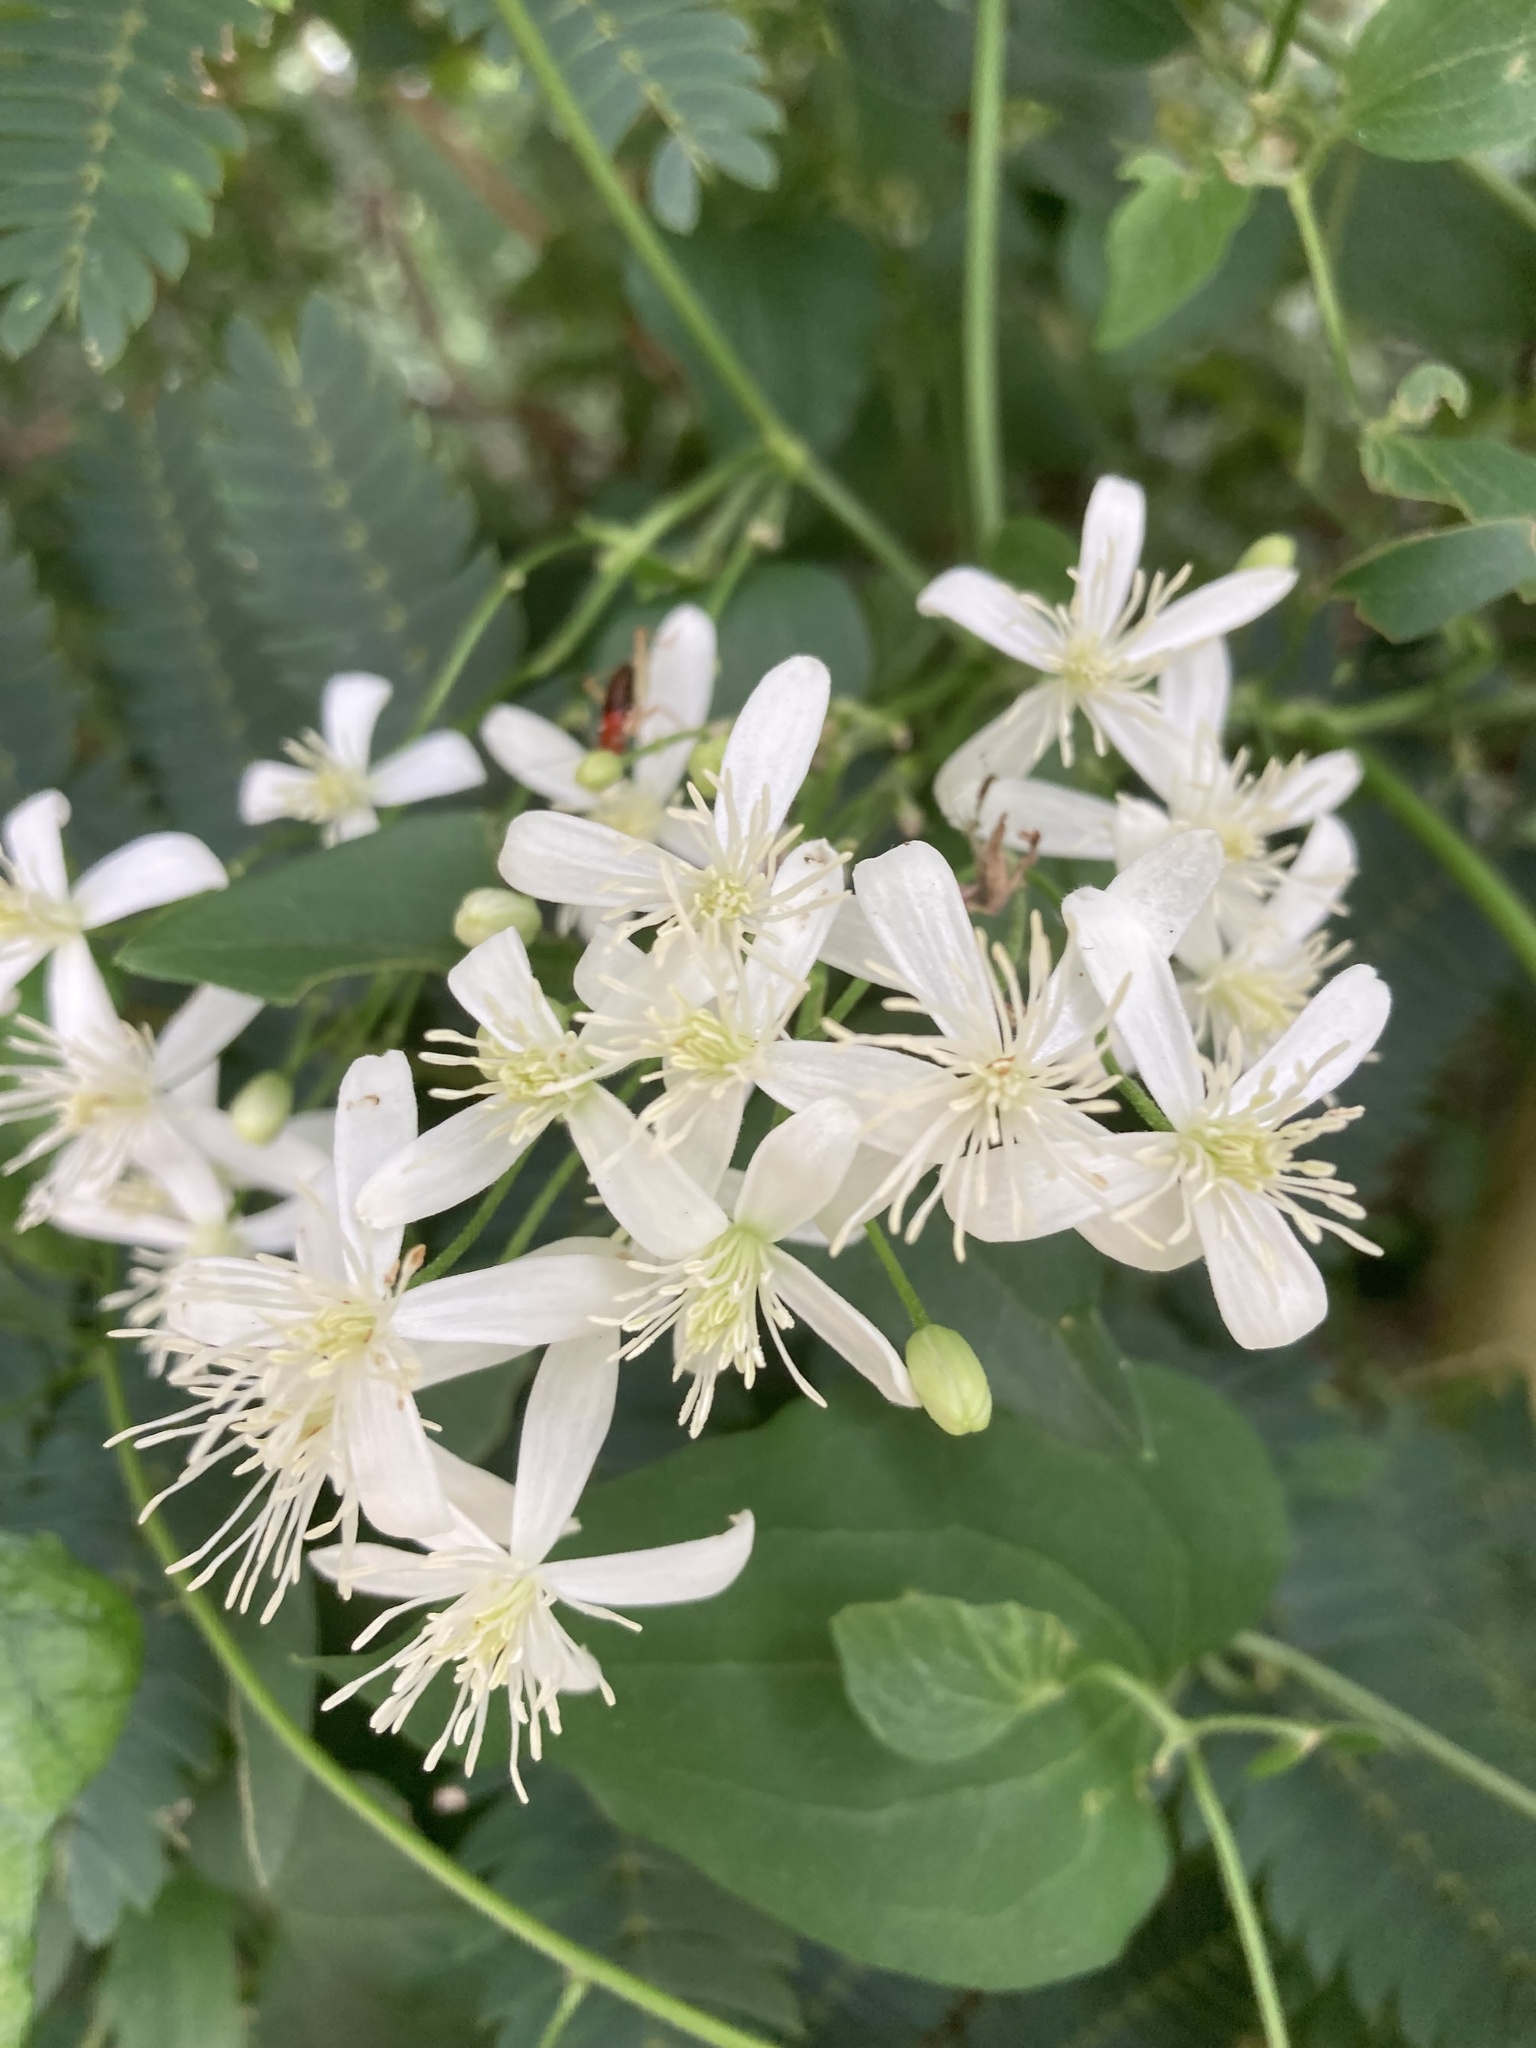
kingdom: Plantae
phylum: Tracheophyta
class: Magnoliopsida
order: Ranunculales
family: Ranunculaceae
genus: Clematis
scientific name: Clematis terniflora
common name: Sweet autumn clematis
